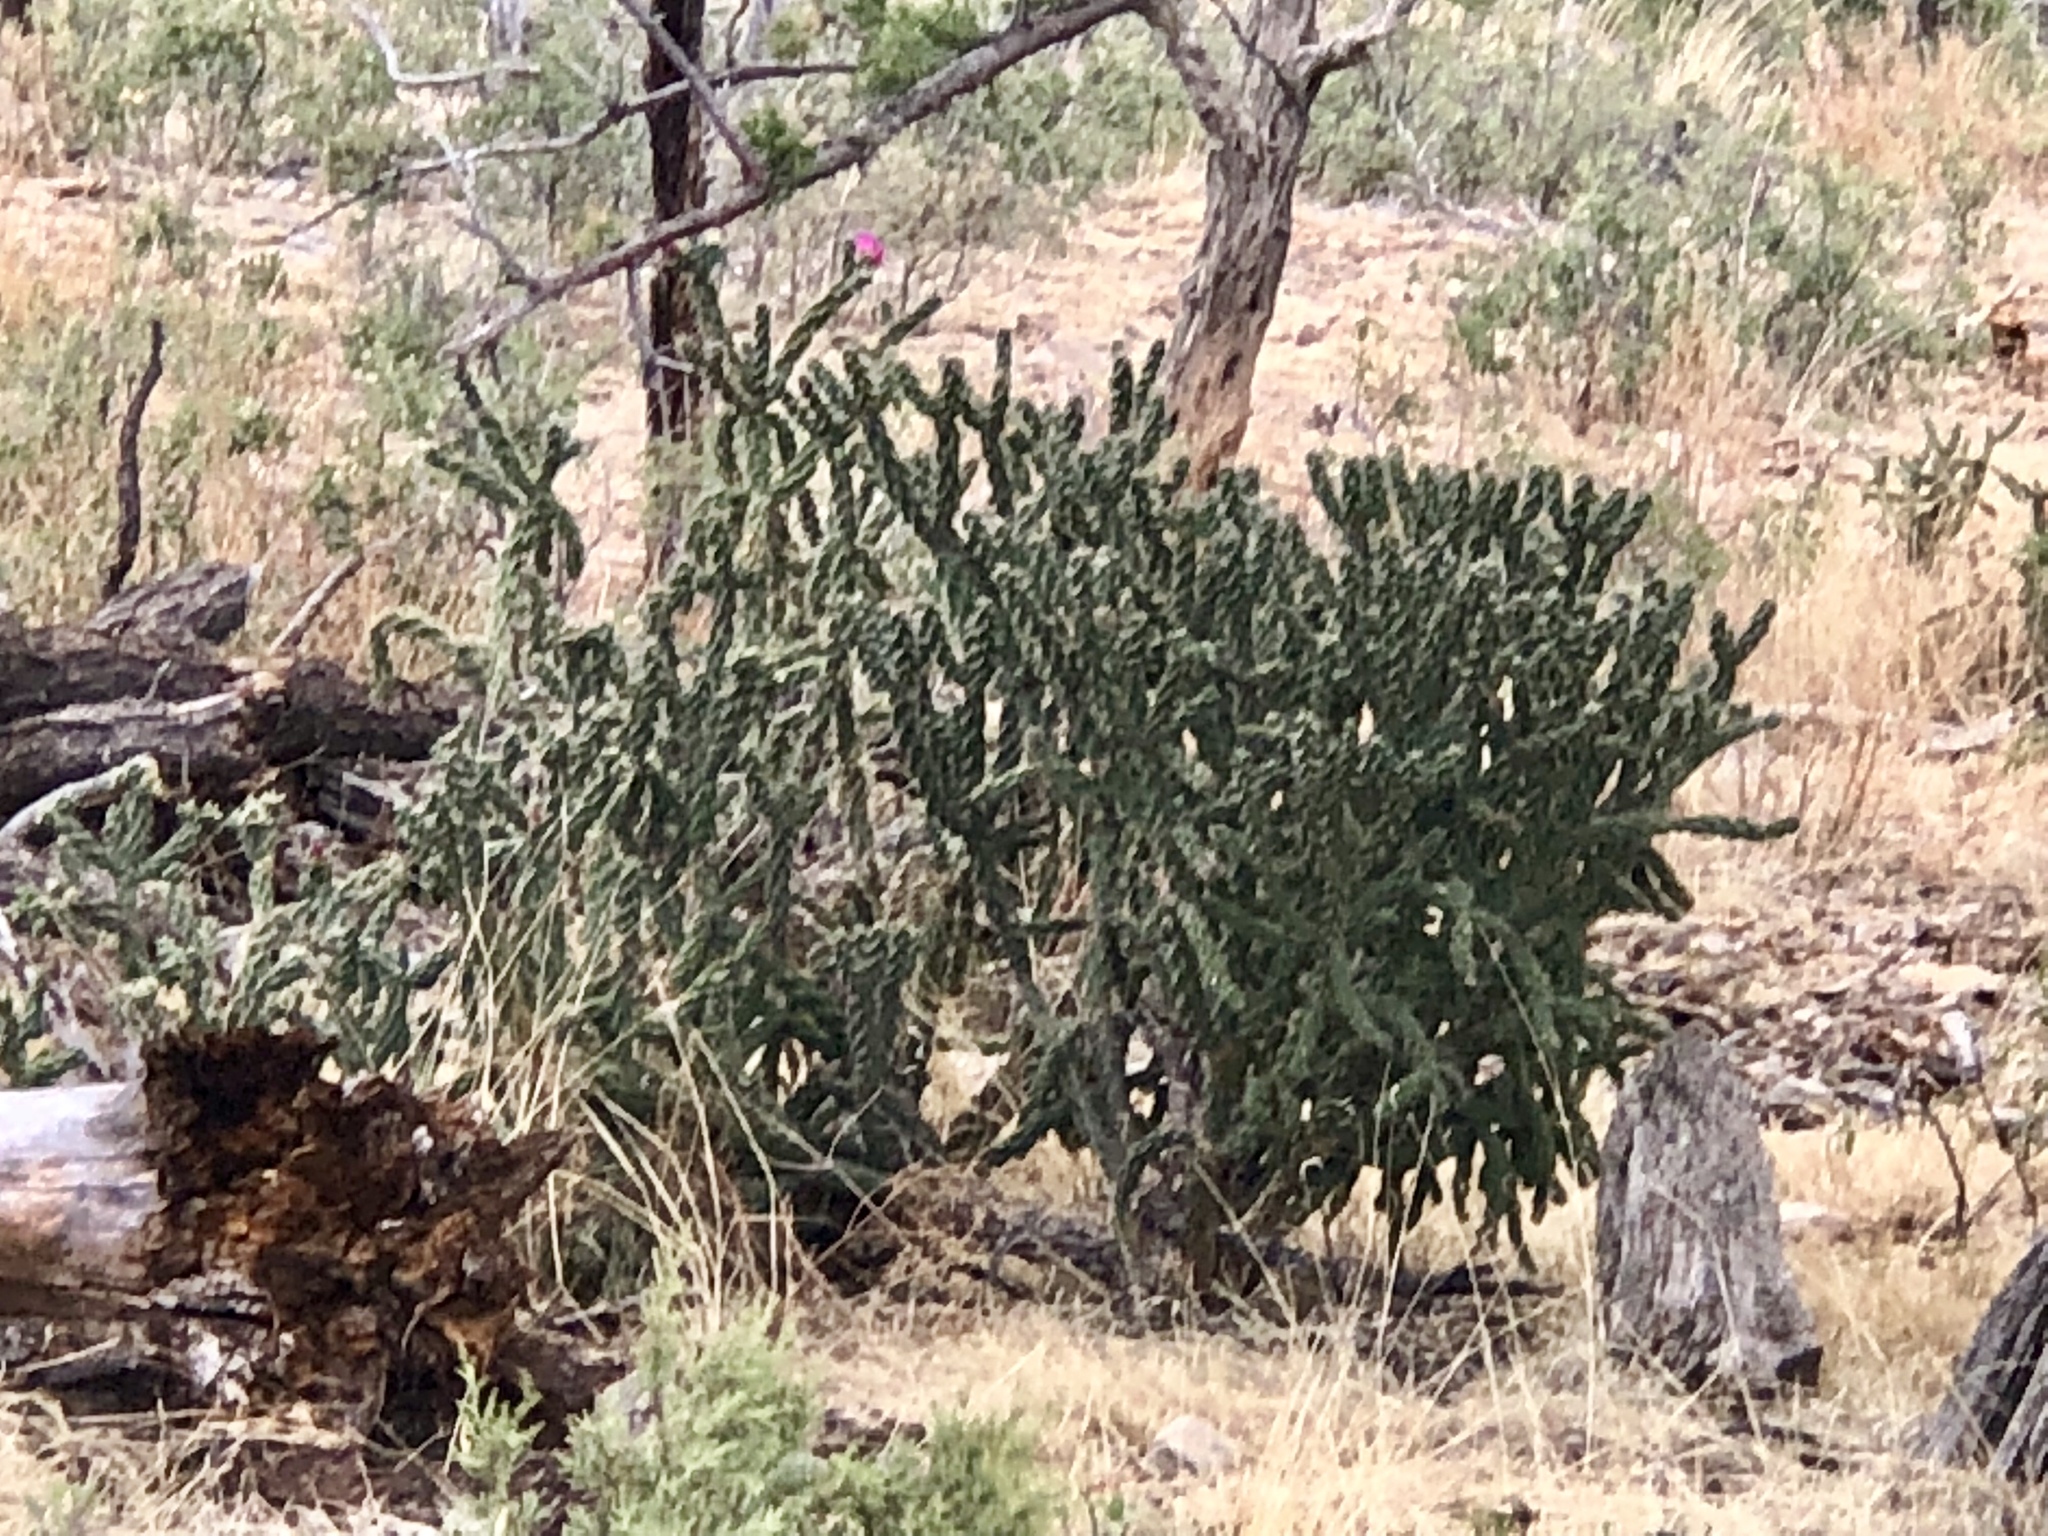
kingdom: Plantae
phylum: Tracheophyta
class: Magnoliopsida
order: Caryophyllales
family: Cactaceae
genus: Cylindropuntia
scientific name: Cylindropuntia imbricata
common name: Candelabrum cactus
